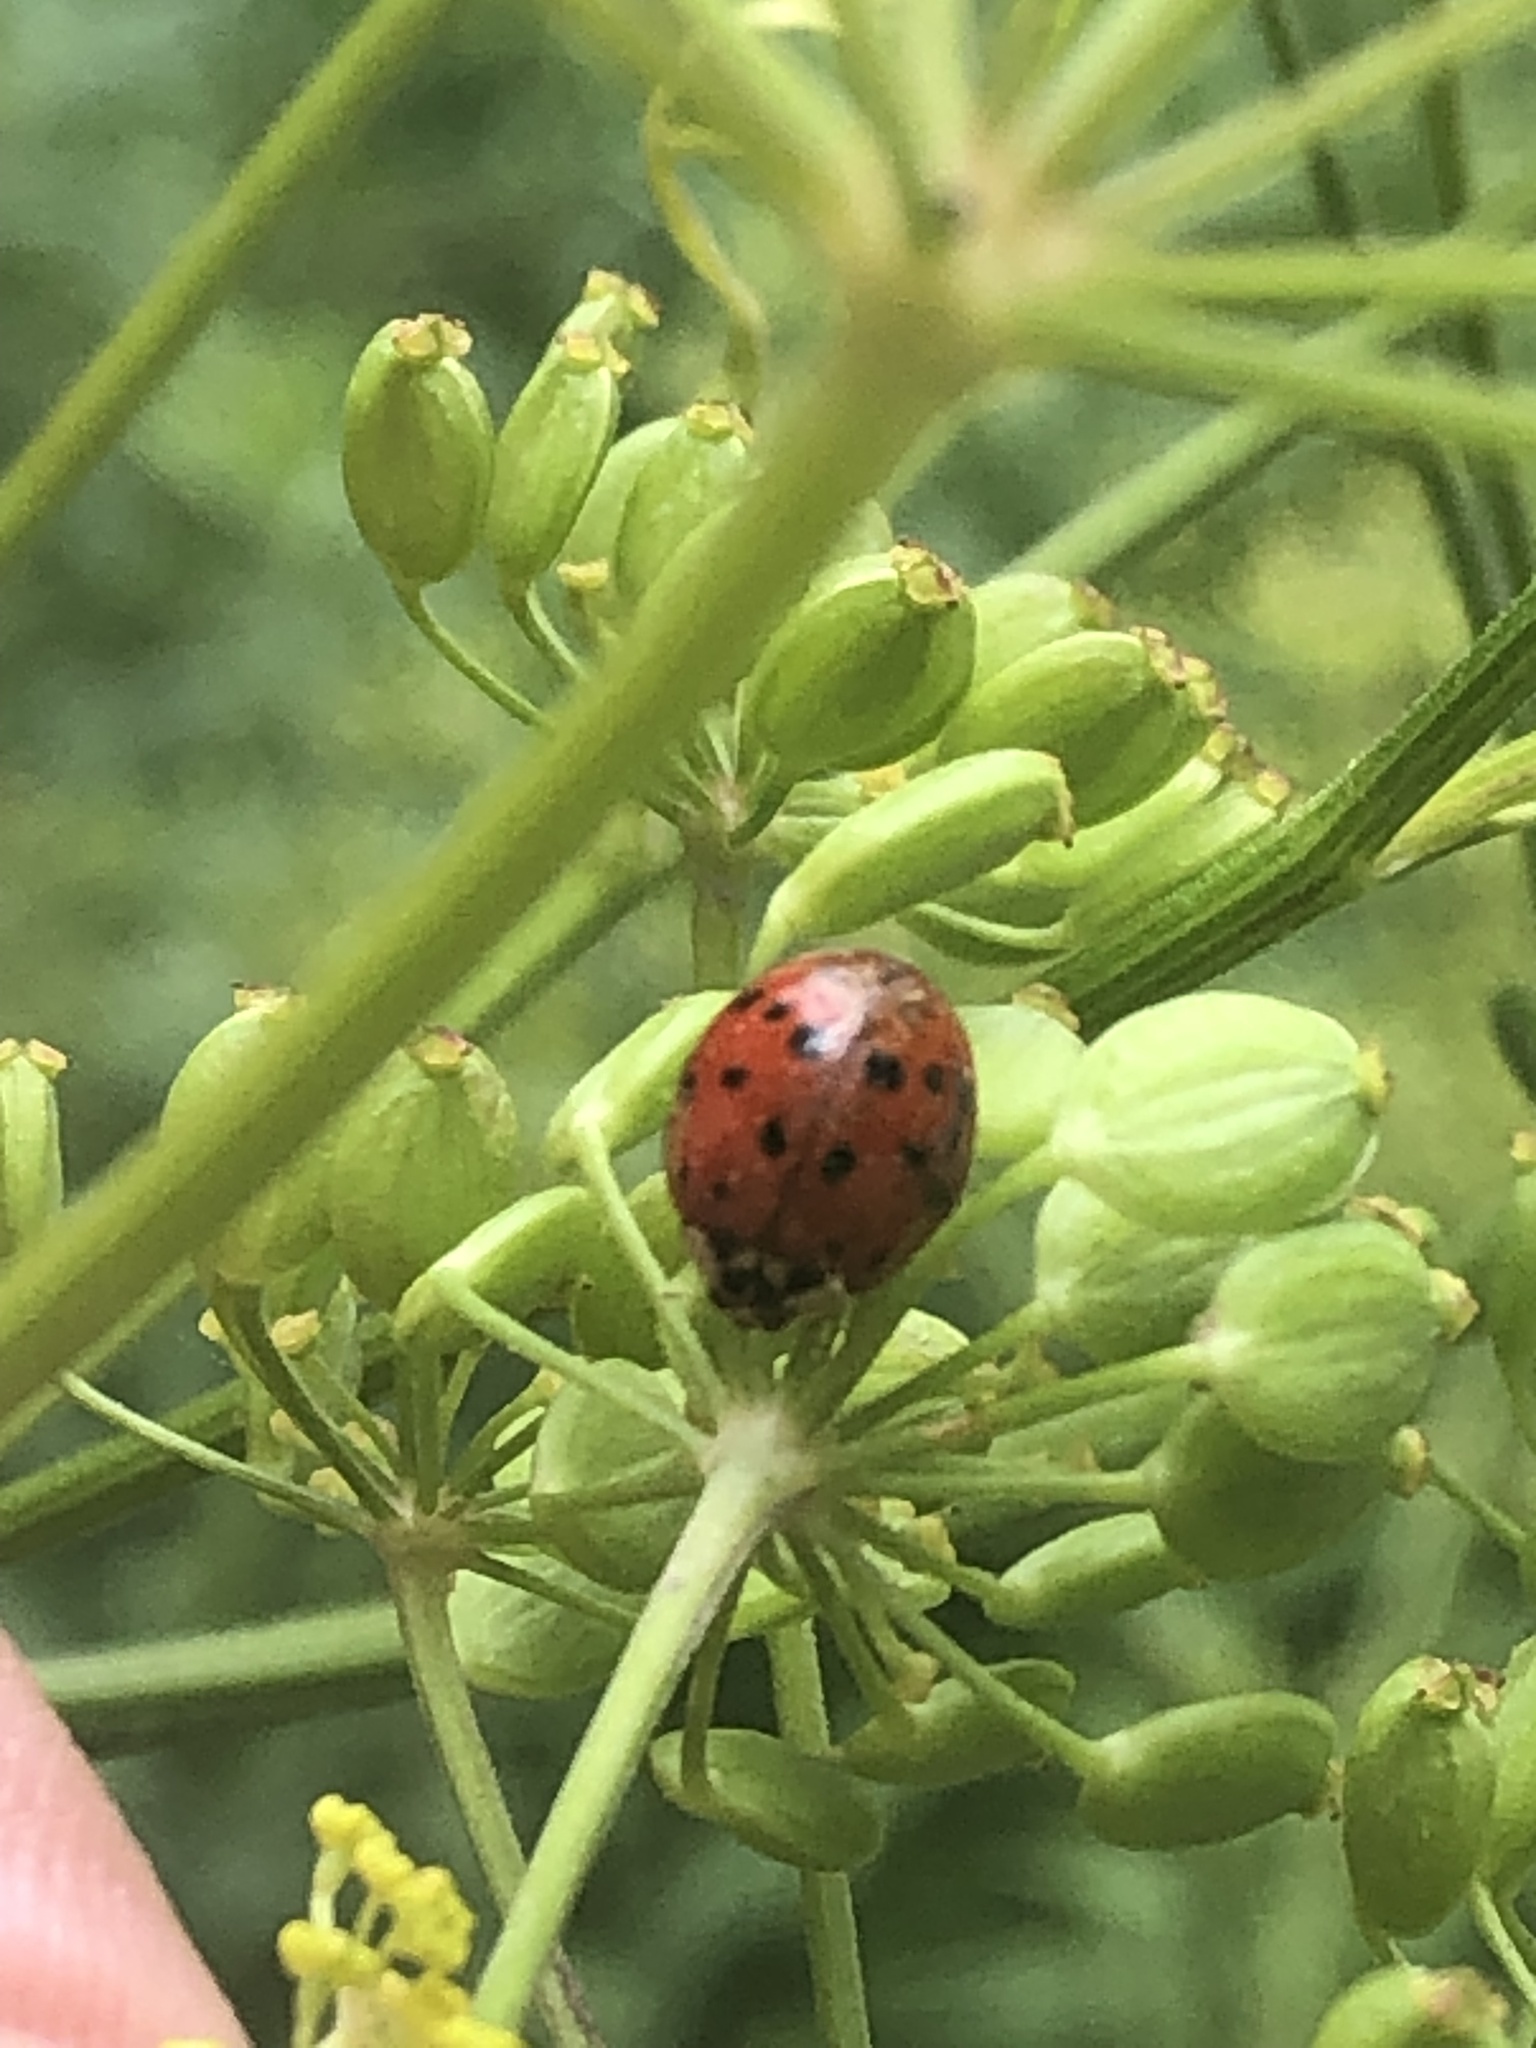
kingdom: Animalia
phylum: Arthropoda
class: Insecta
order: Coleoptera
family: Coccinellidae
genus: Harmonia
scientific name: Harmonia axyridis
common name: Harlequin ladybird
